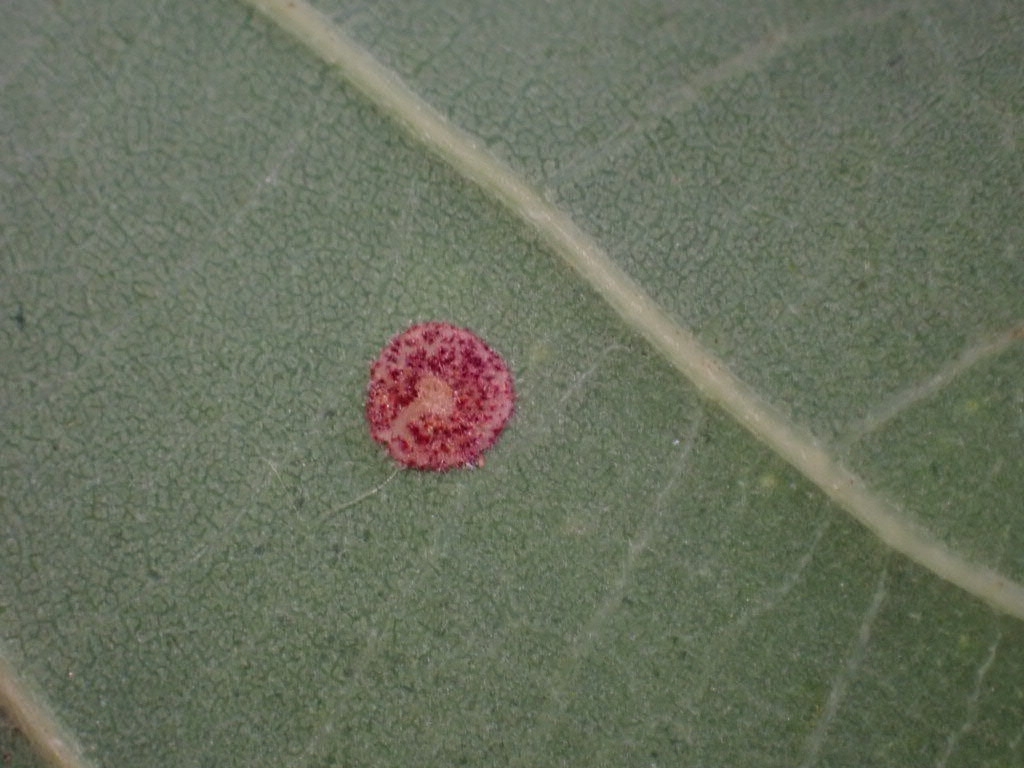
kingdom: Animalia
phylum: Arthropoda
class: Insecta
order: Hymenoptera
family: Cynipidae
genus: Neuroterus
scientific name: Neuroterus quercusbaccarum
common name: Common spangle gall
